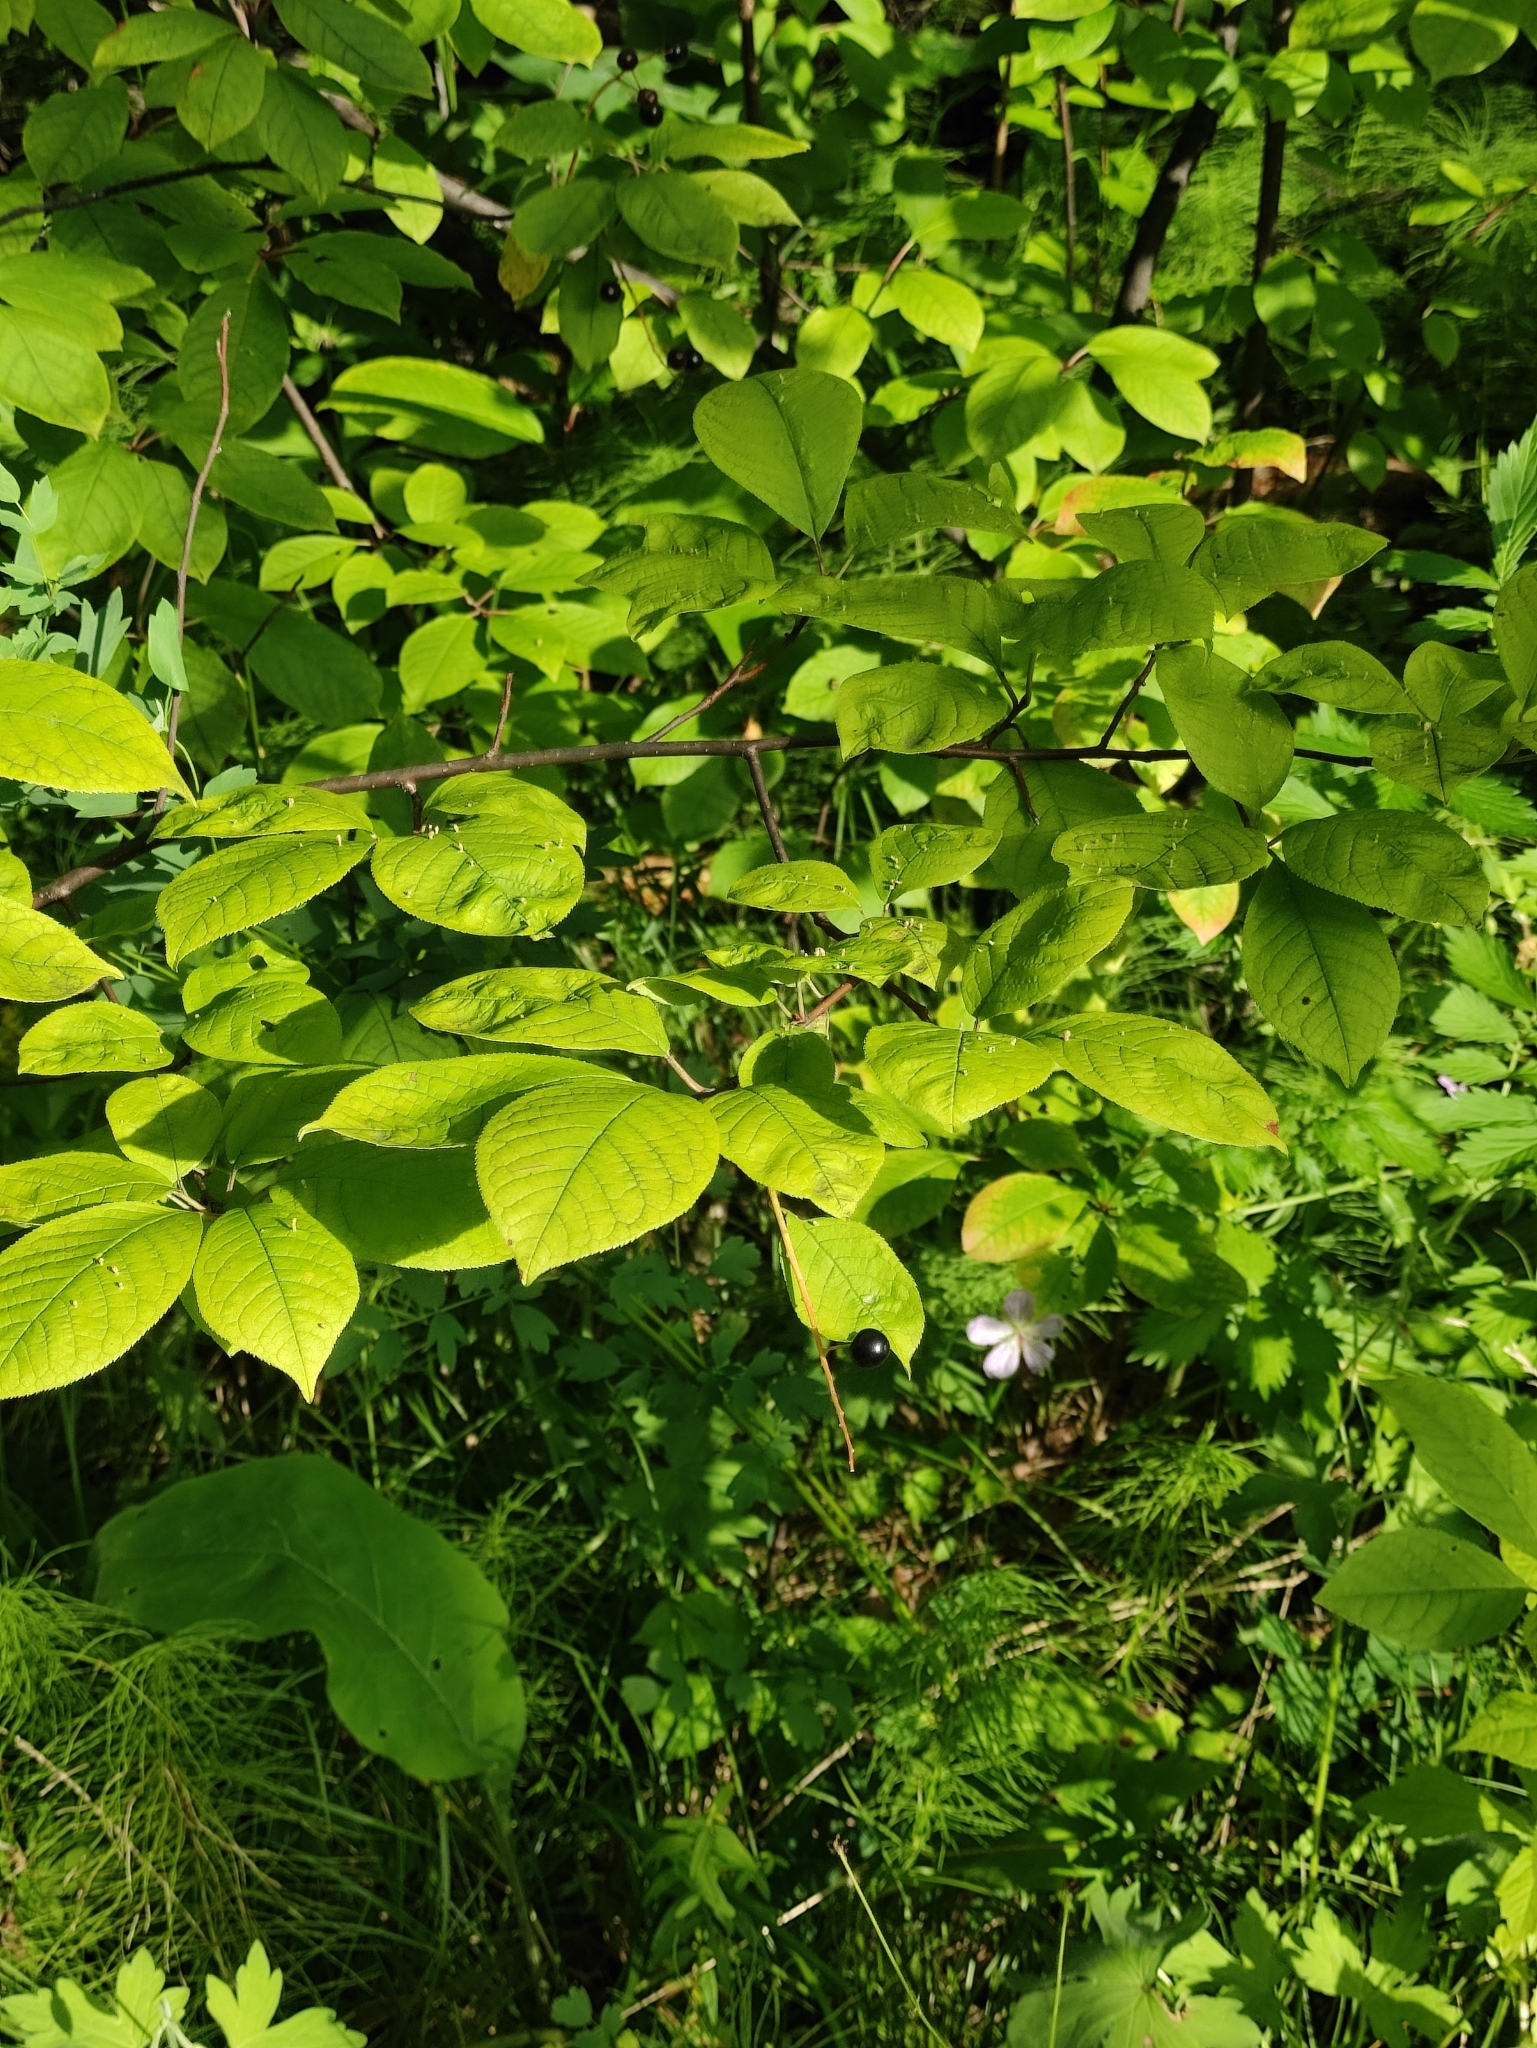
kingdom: Plantae
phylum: Tracheophyta
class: Magnoliopsida
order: Rosales
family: Rosaceae
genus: Prunus
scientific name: Prunus padus
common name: Bird cherry
